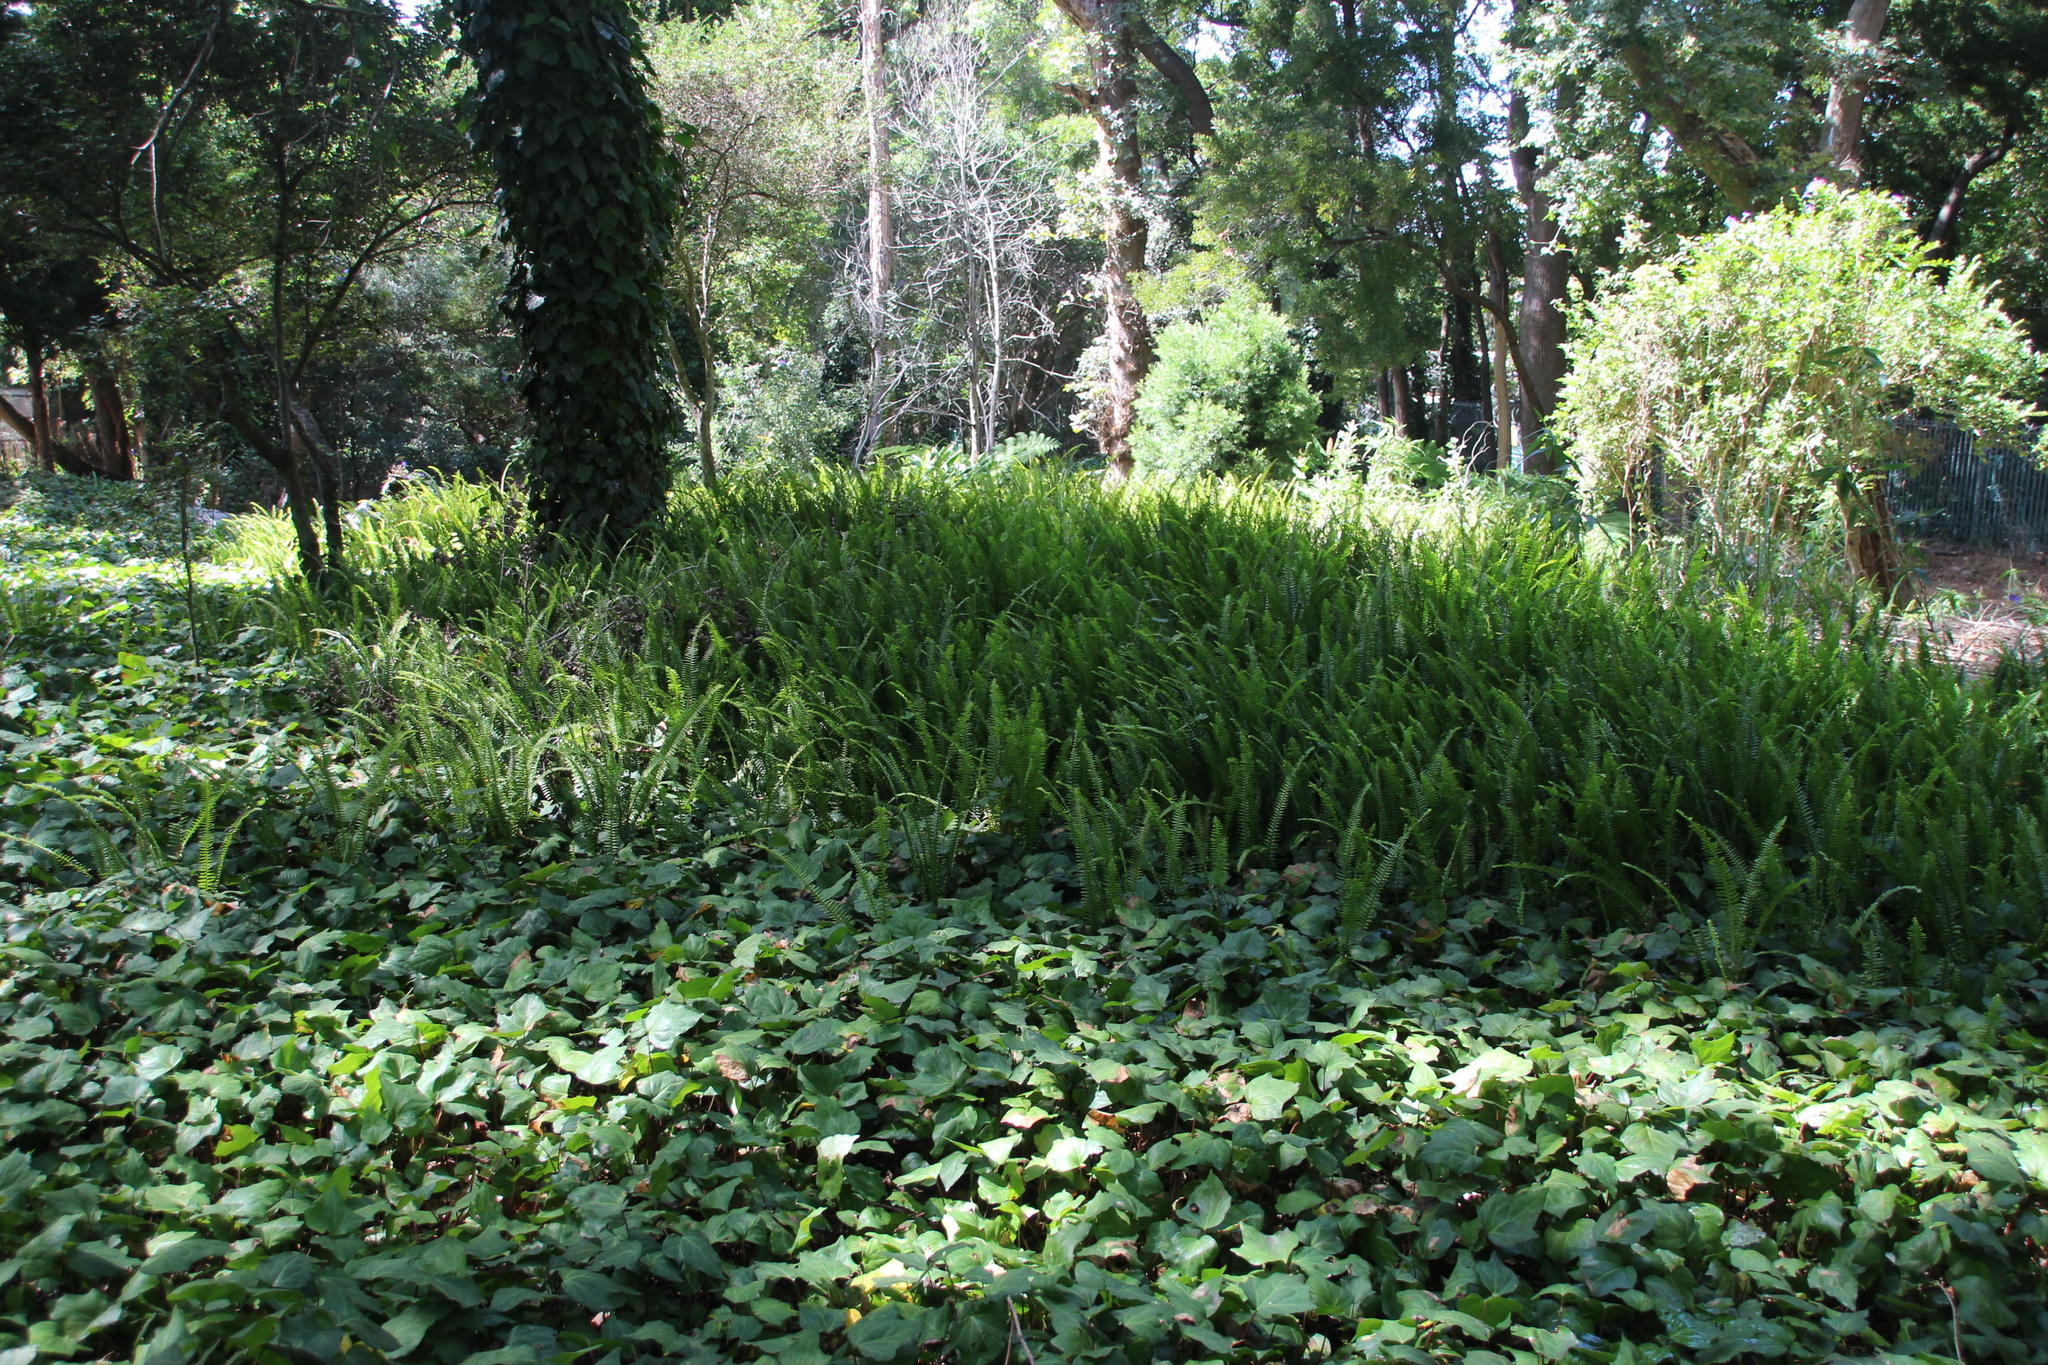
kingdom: Plantae
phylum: Tracheophyta
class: Polypodiopsida
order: Polypodiales
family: Nephrolepidaceae
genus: Nephrolepis
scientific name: Nephrolepis cordifolia
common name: Narrow swordfern
